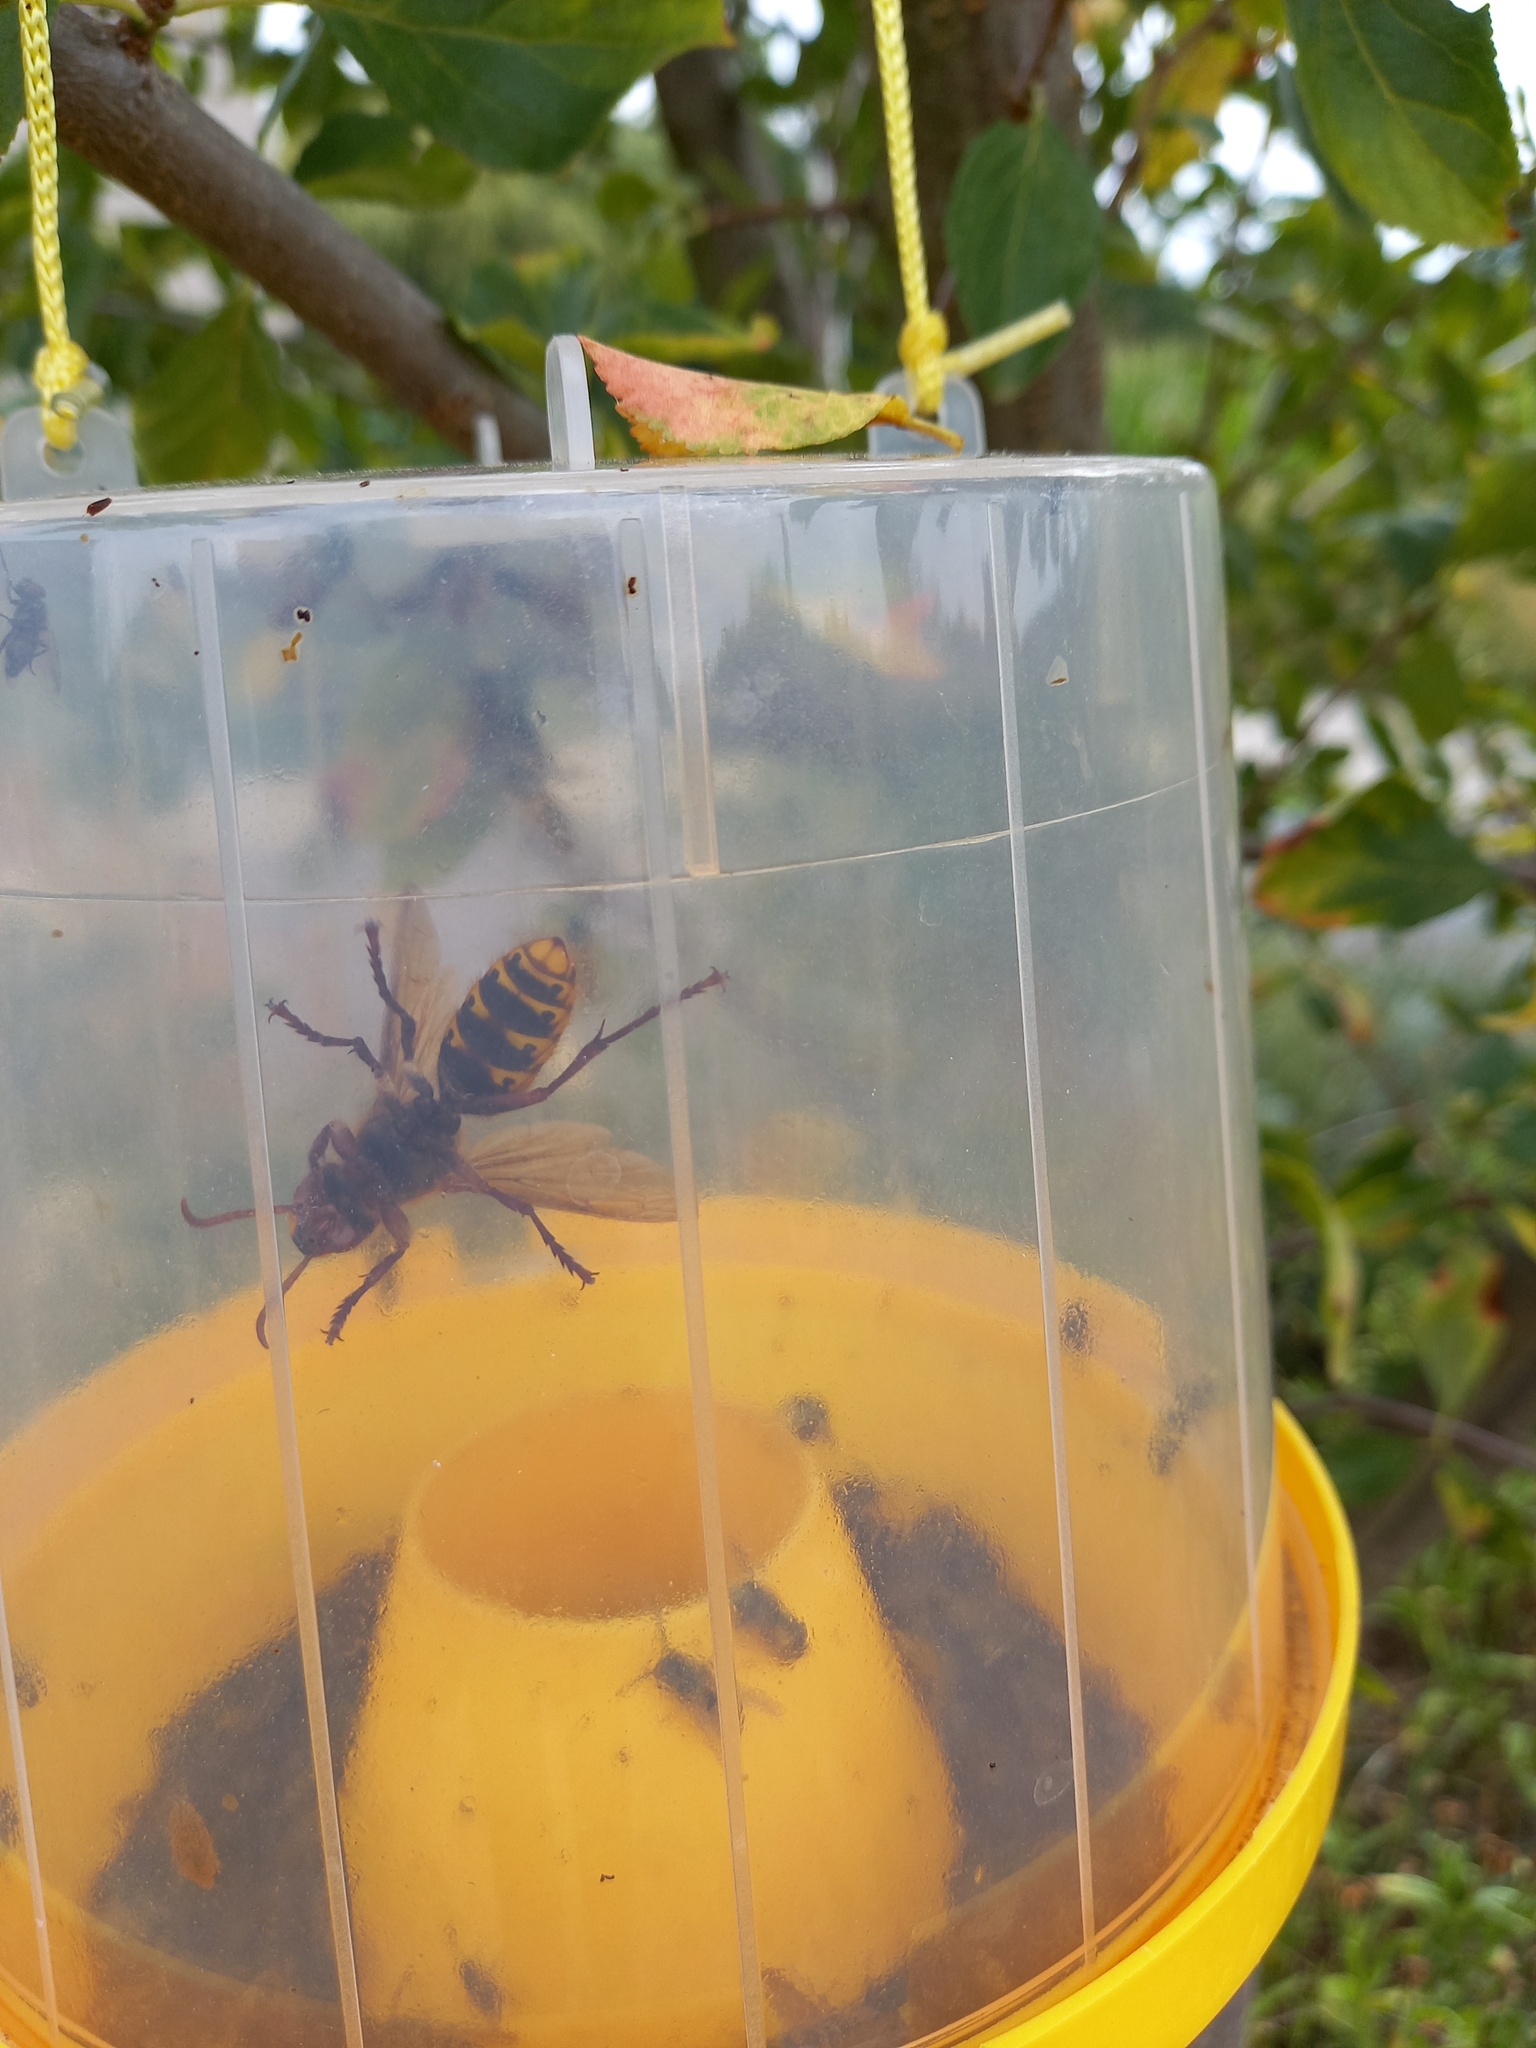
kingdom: Animalia
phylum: Arthropoda
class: Insecta
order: Hymenoptera
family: Vespidae
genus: Vespa
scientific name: Vespa crabro
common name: Hornet
